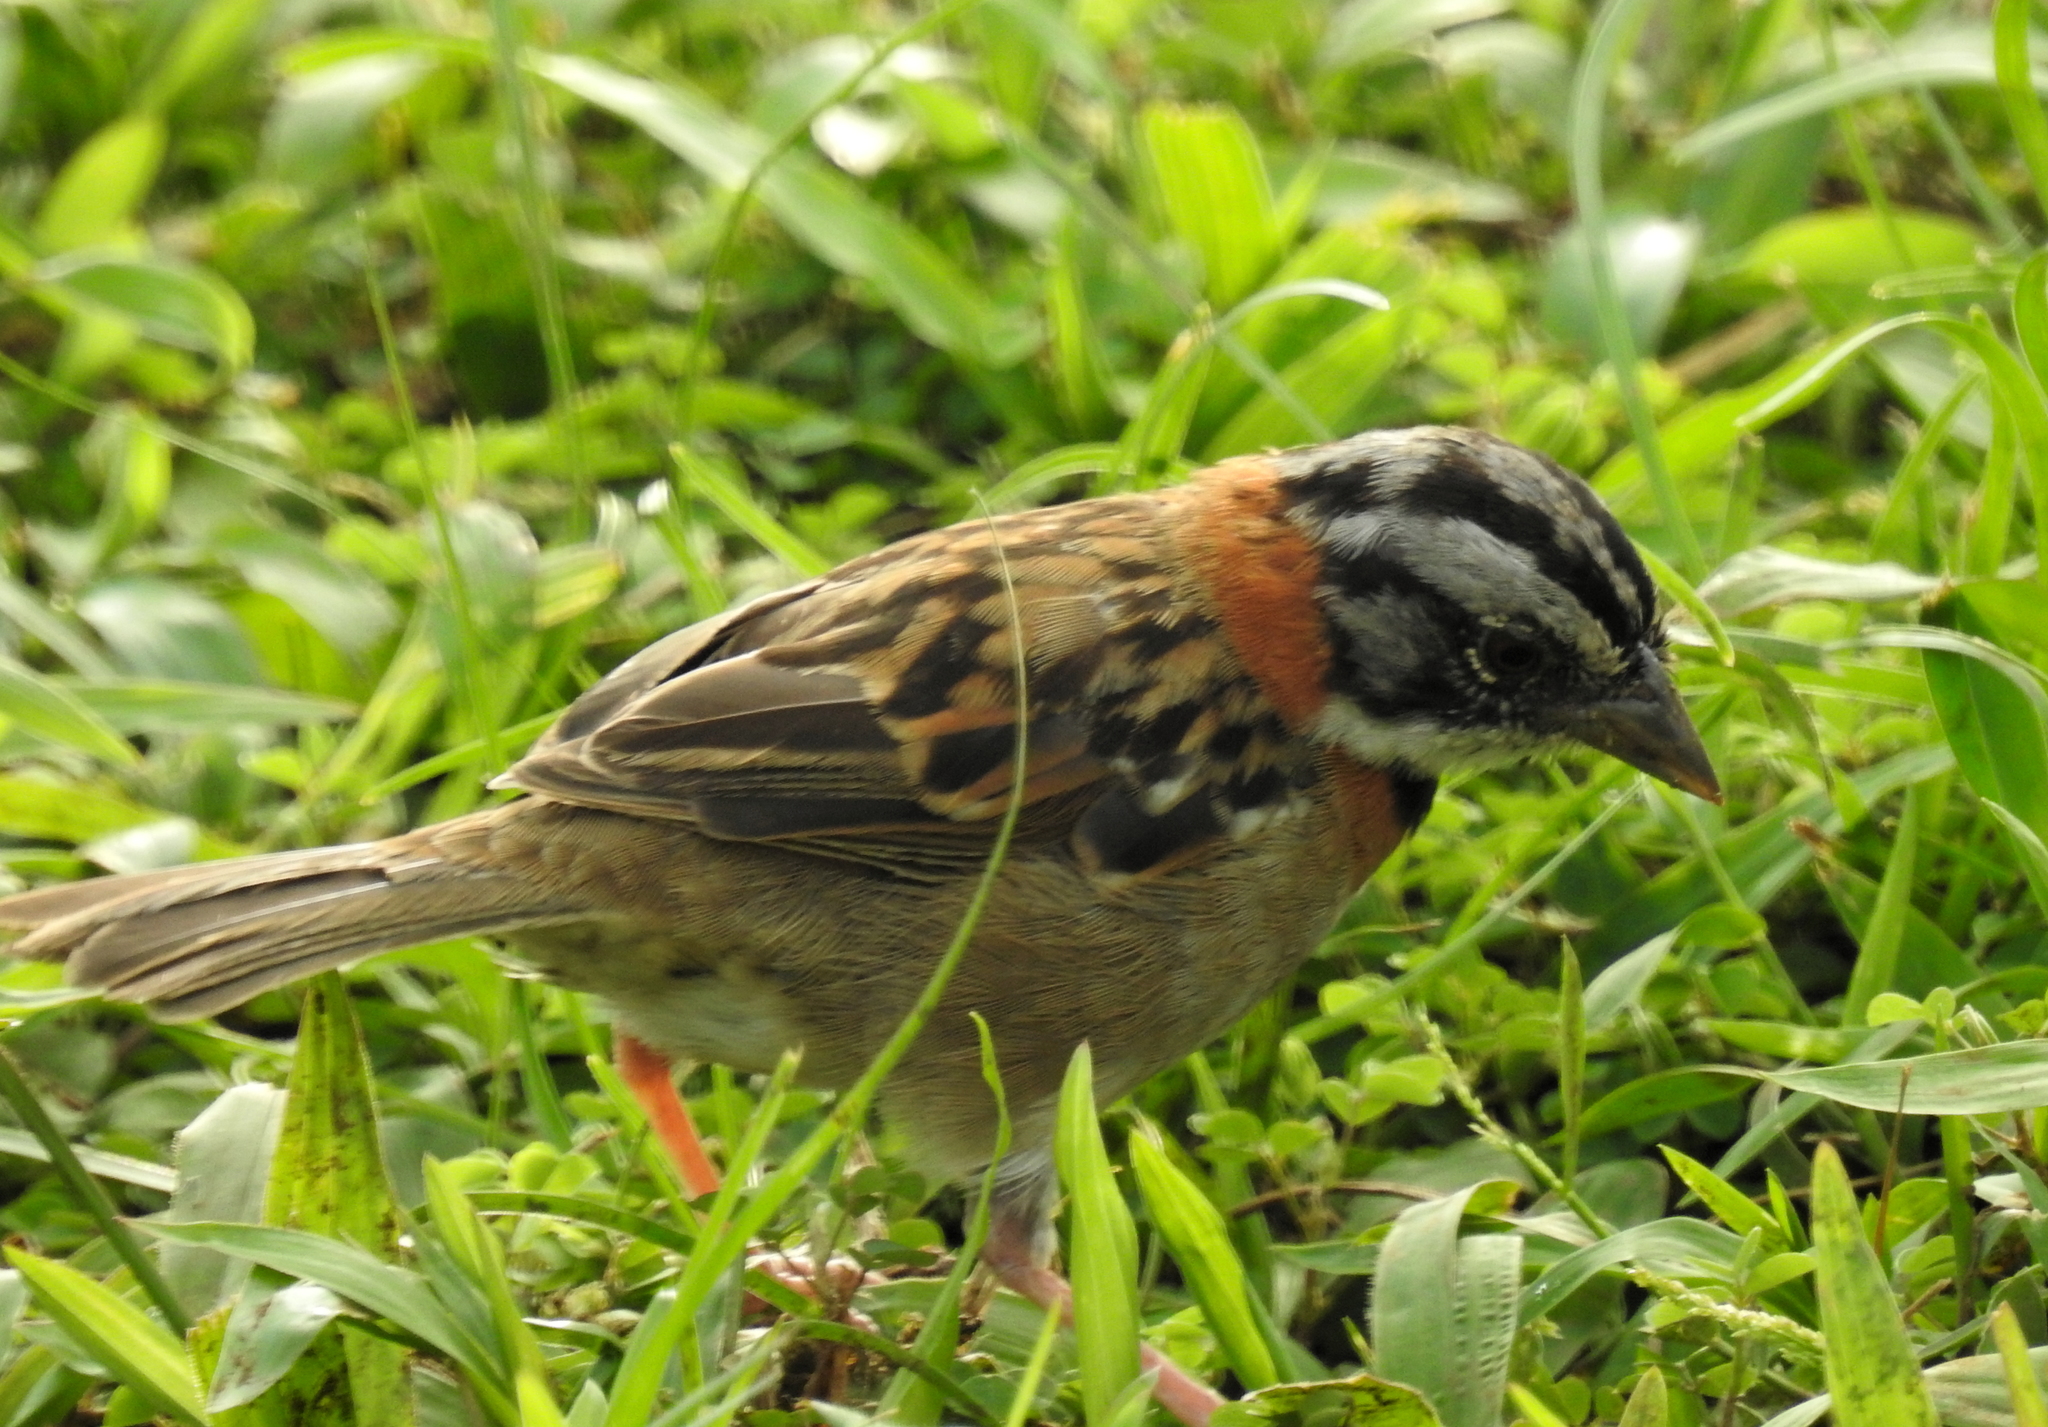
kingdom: Animalia
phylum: Chordata
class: Aves
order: Passeriformes
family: Passerellidae
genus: Zonotrichia
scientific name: Zonotrichia capensis
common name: Rufous-collared sparrow
